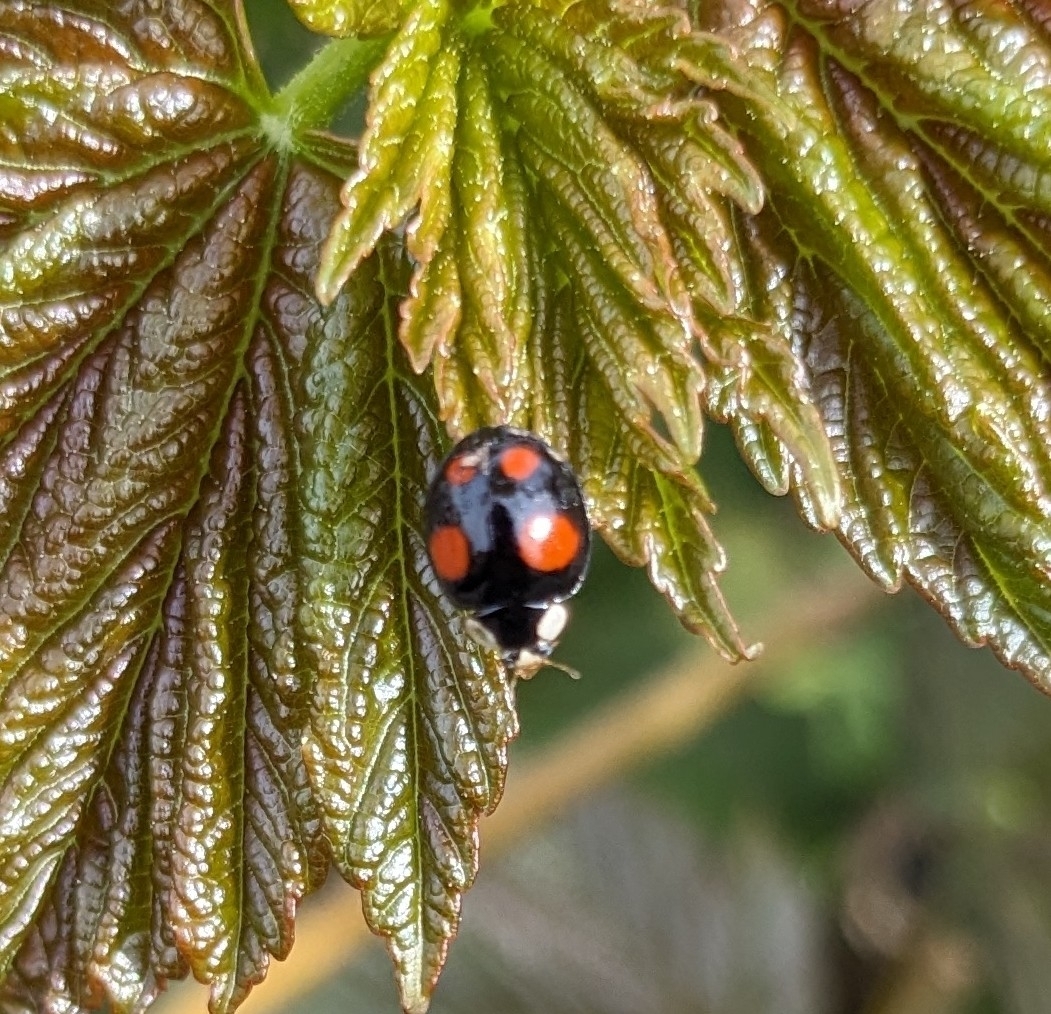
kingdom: Animalia
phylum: Arthropoda
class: Insecta
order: Coleoptera
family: Coccinellidae
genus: Harmonia
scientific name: Harmonia axyridis
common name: Harlequin ladybird
